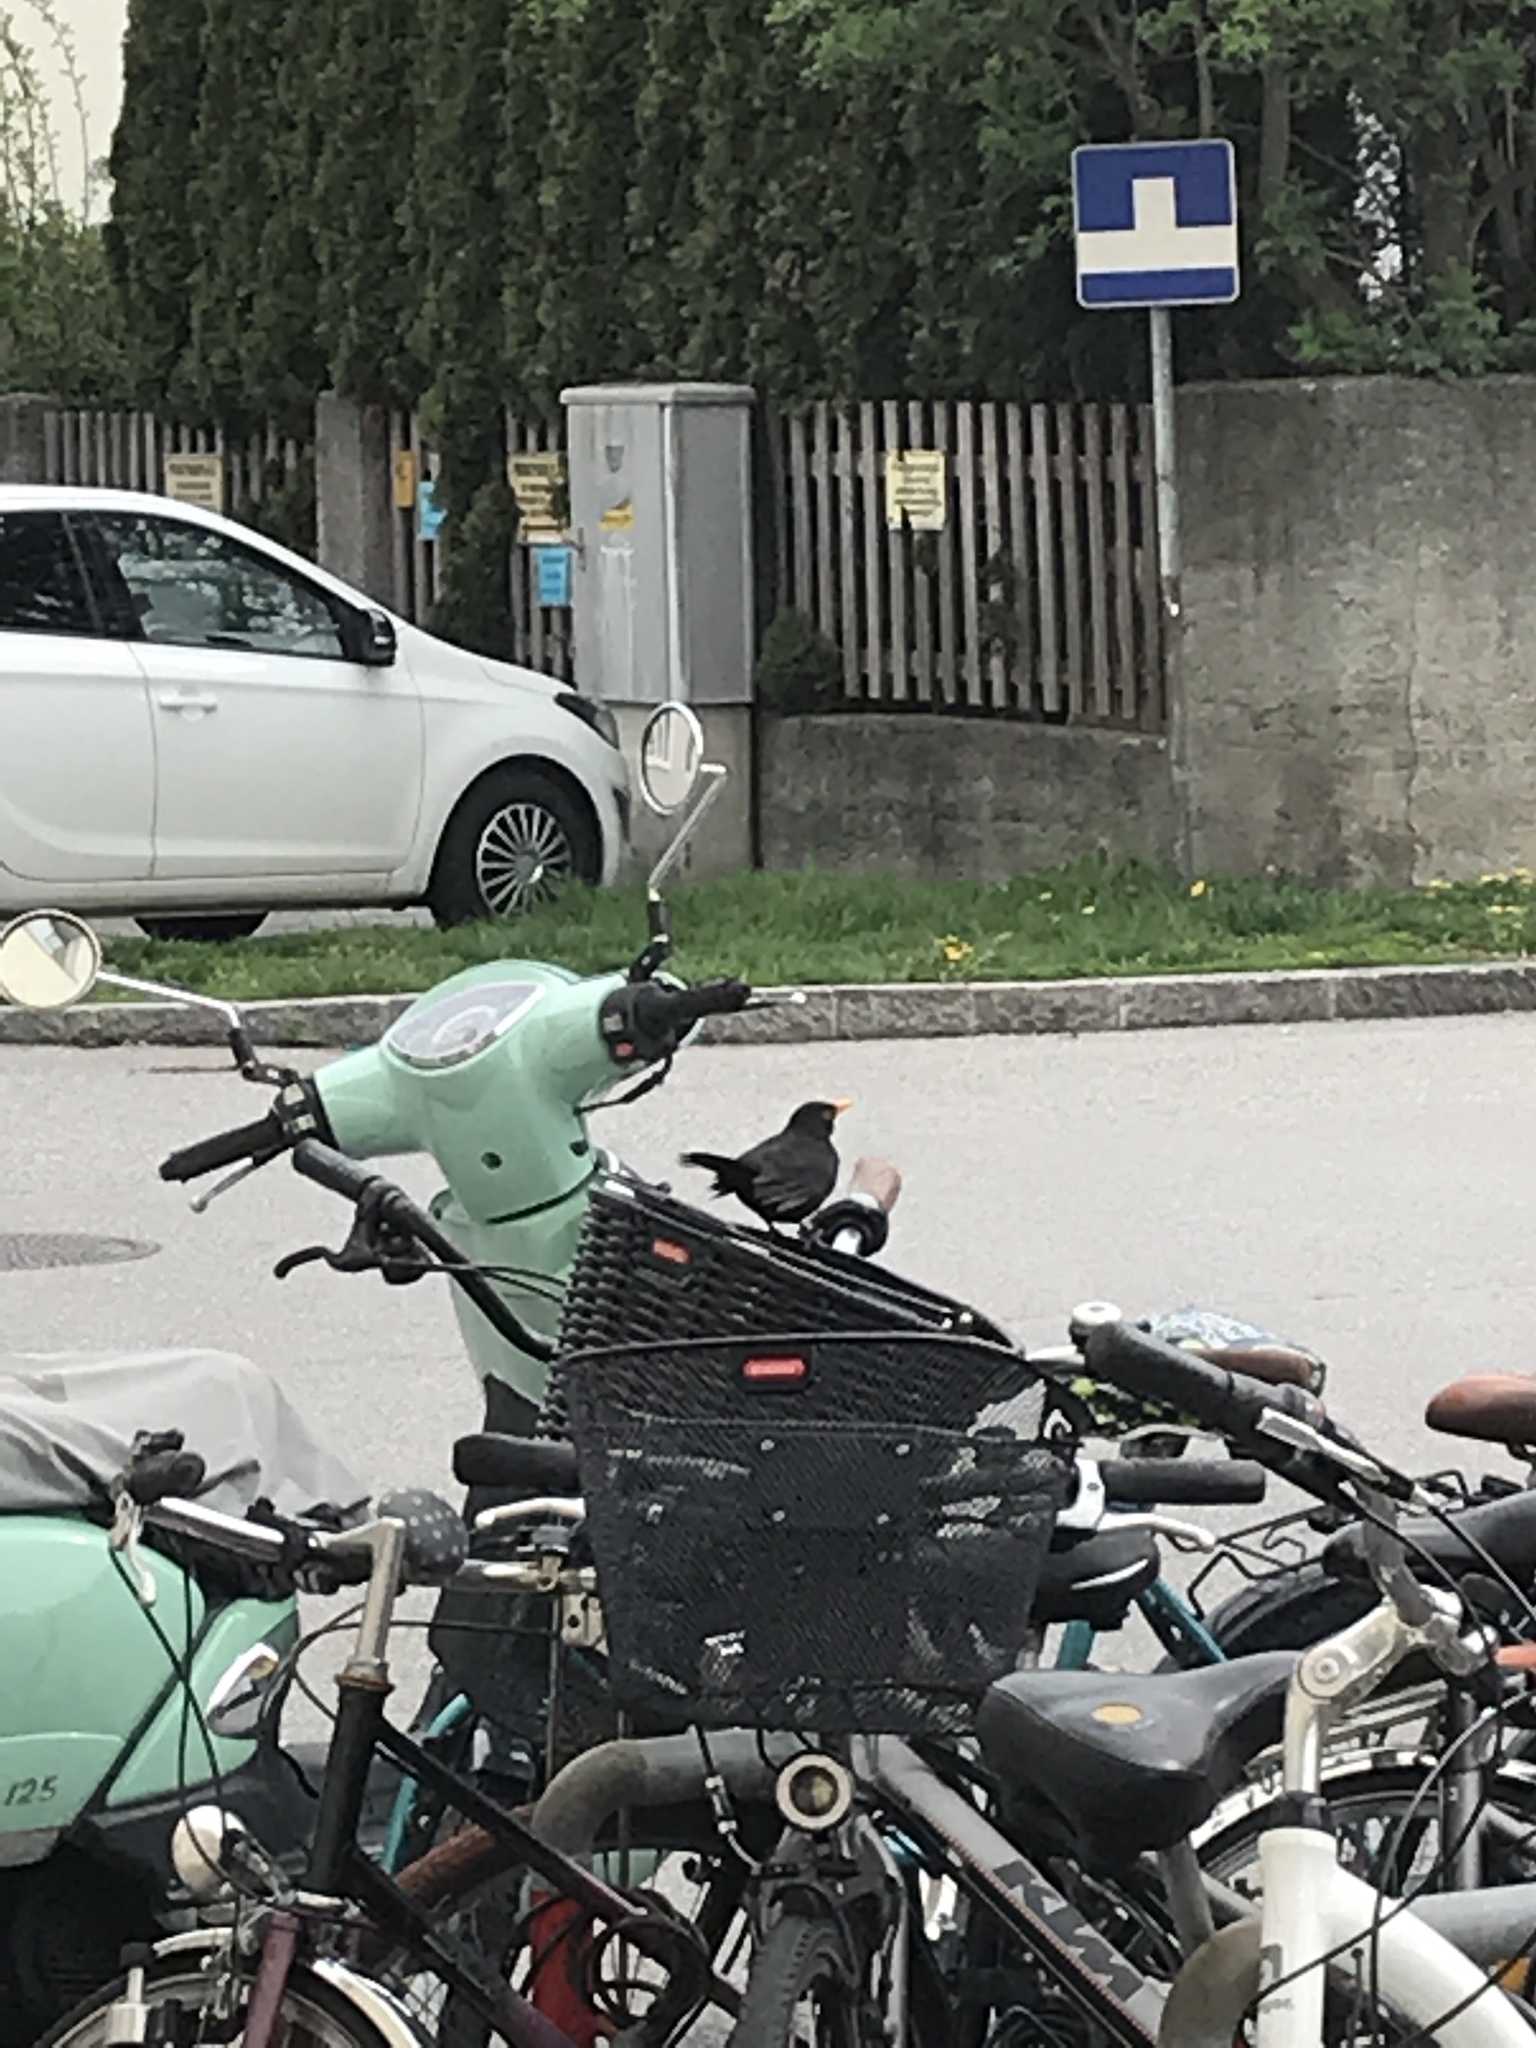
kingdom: Animalia
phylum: Chordata
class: Aves
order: Passeriformes
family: Turdidae
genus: Turdus
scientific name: Turdus merula
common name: Common blackbird
